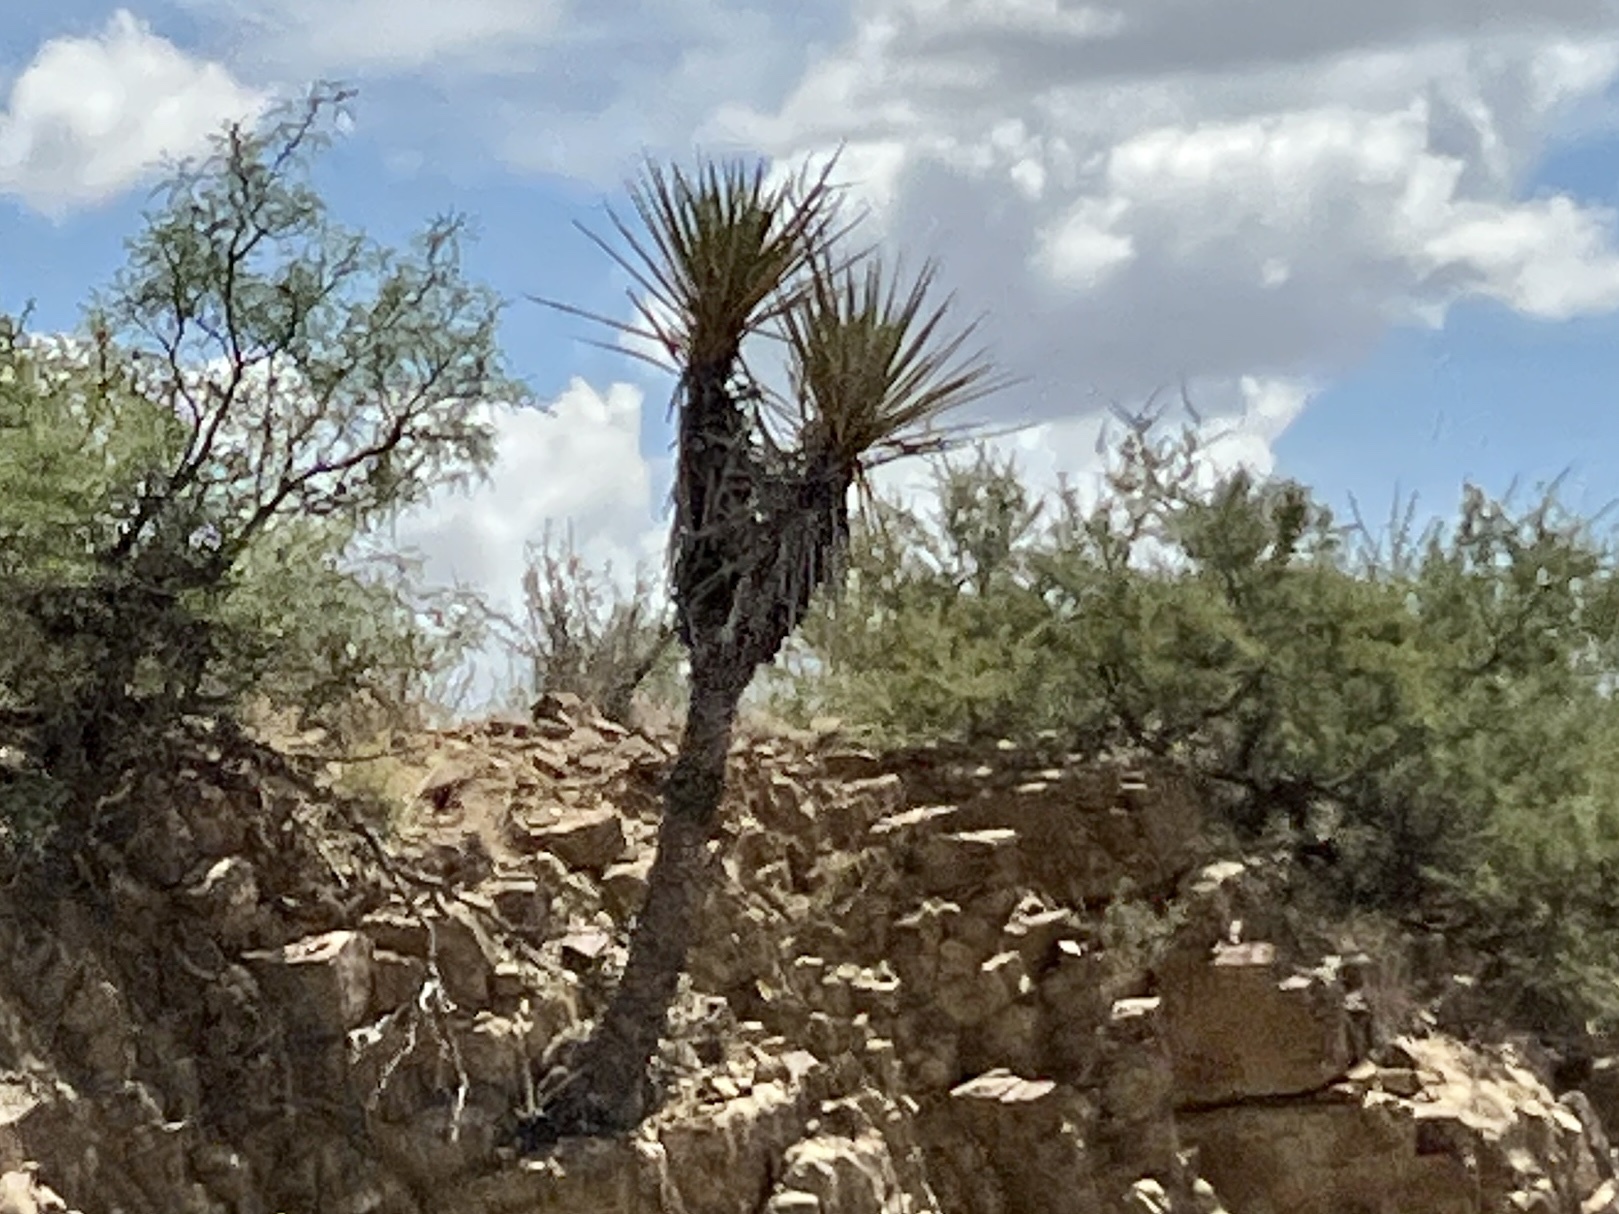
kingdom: Plantae
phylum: Tracheophyta
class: Liliopsida
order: Asparagales
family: Asparagaceae
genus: Yucca
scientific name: Yucca treculiana
